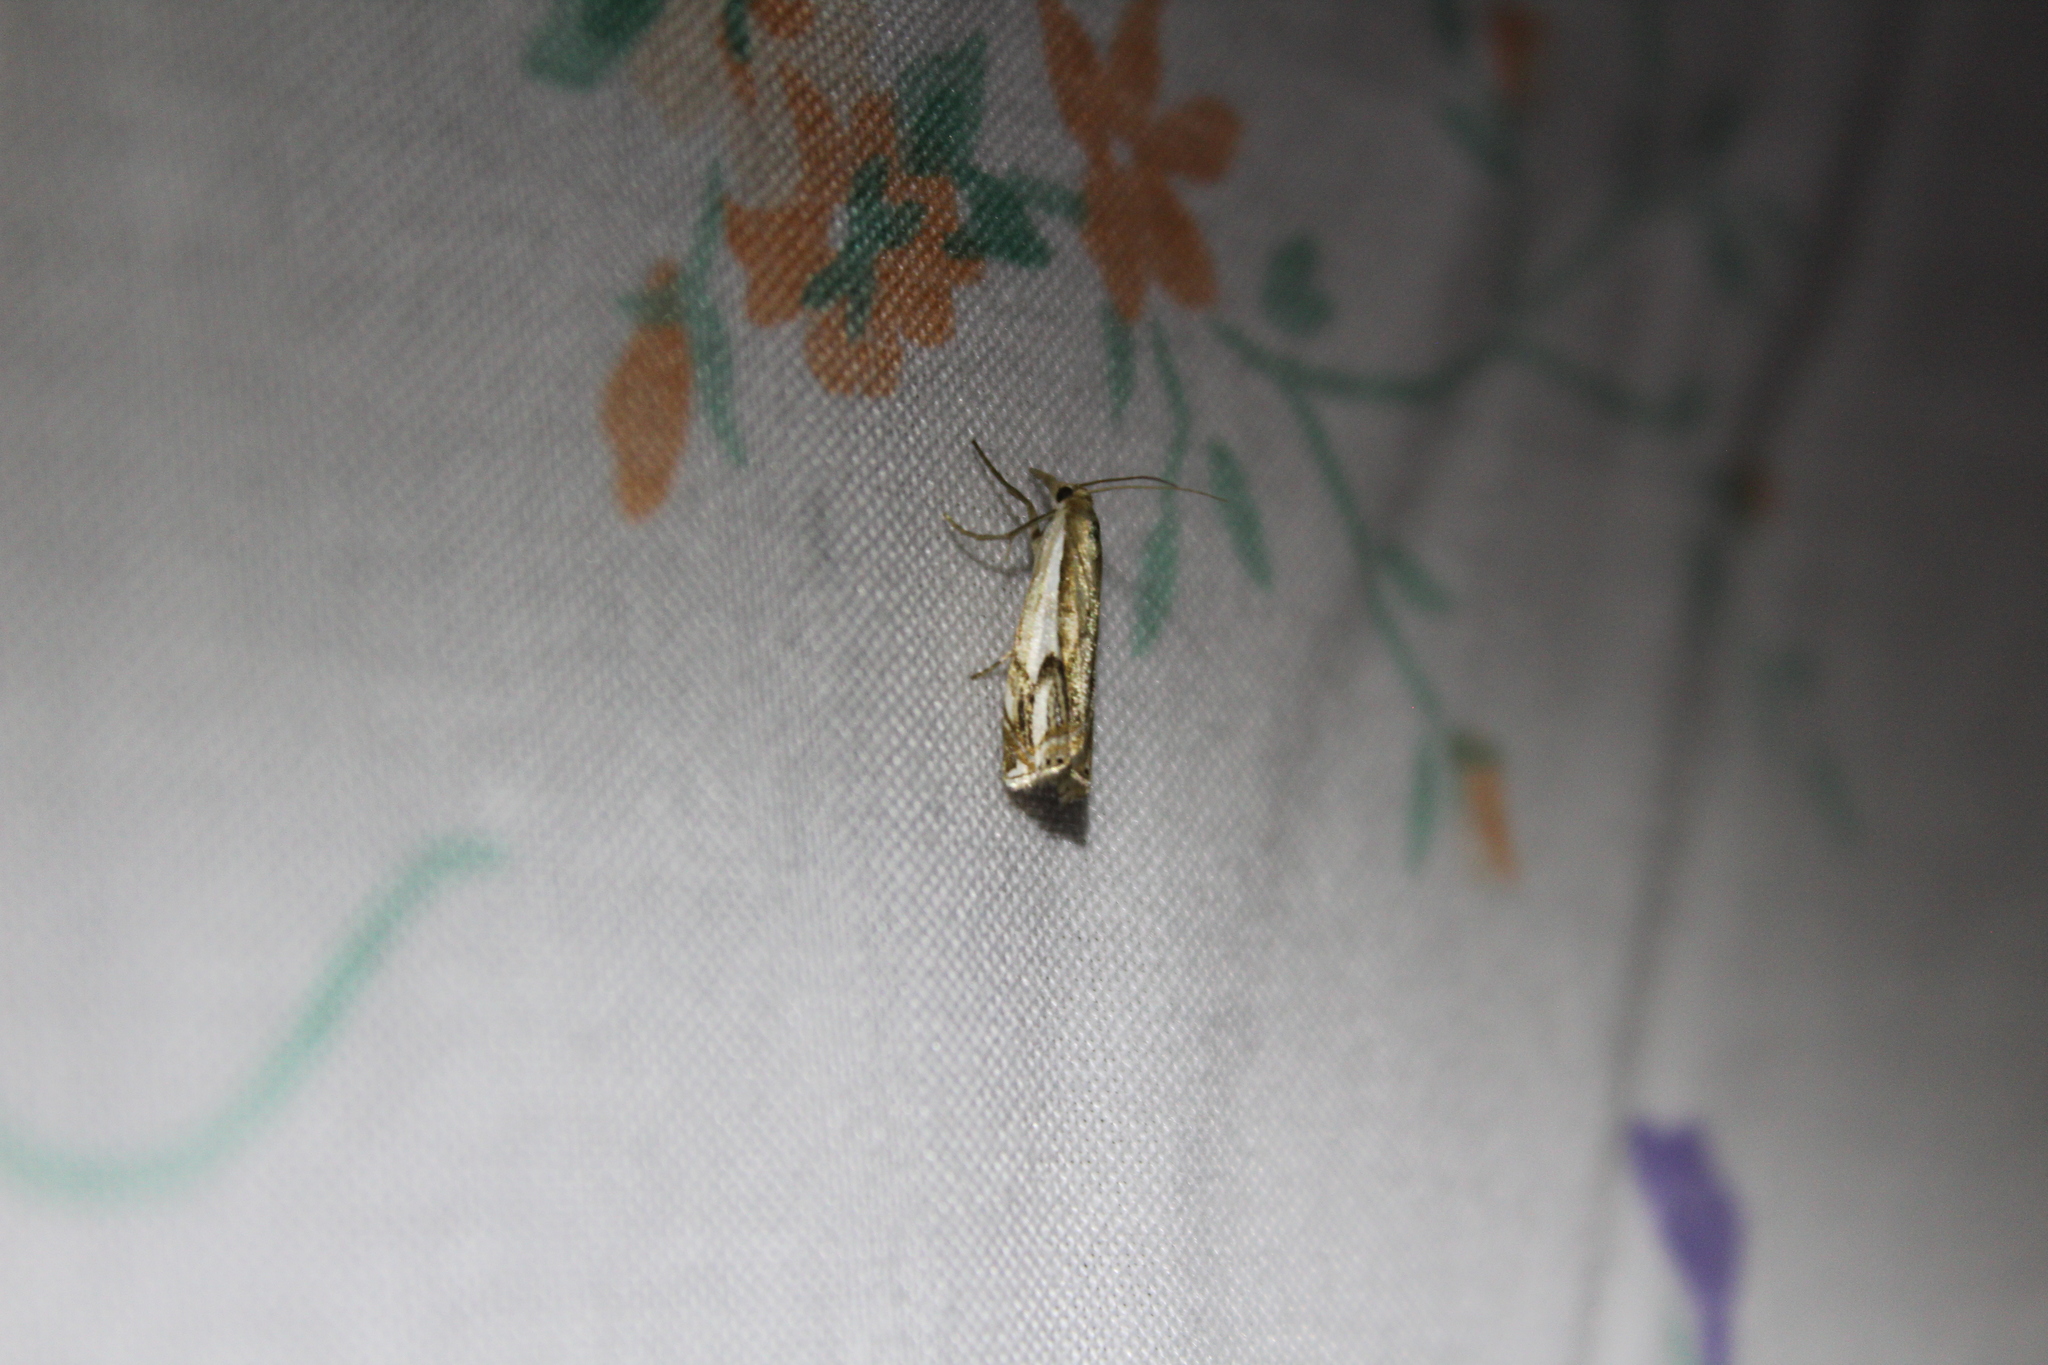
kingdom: Animalia
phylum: Arthropoda
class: Insecta
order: Lepidoptera
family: Crambidae
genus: Crambus
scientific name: Crambus agitatellus
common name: Double-banded grass-veneer
